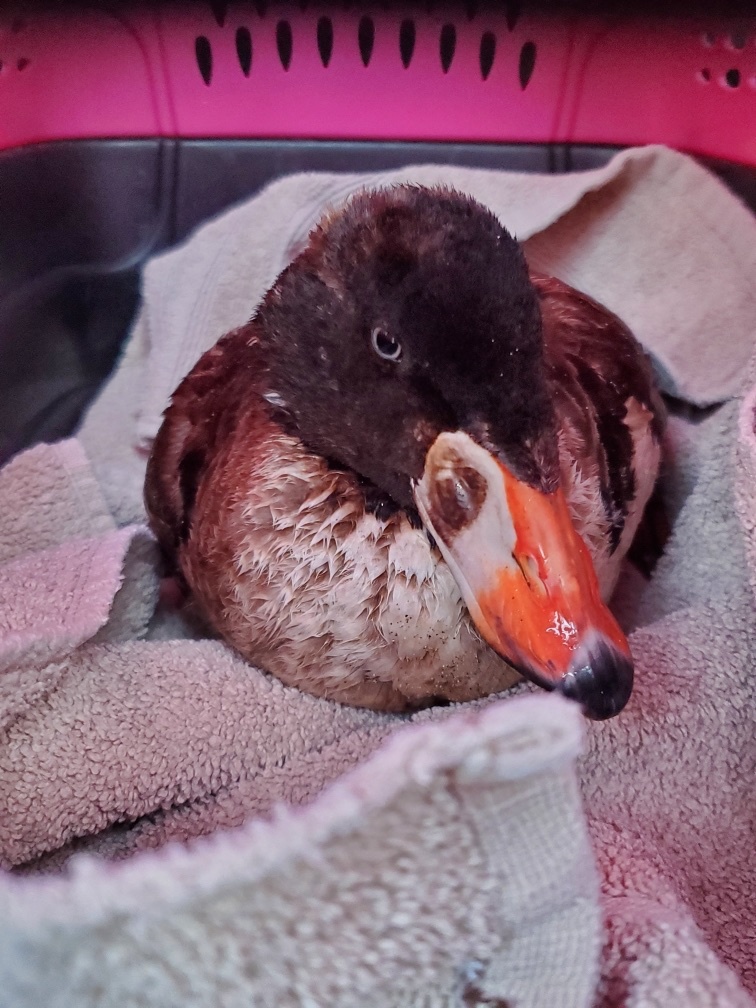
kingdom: Animalia
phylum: Chordata
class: Aves
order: Anseriformes
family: Anatidae
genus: Melanitta
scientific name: Melanitta perspicillata
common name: Surf scoter
